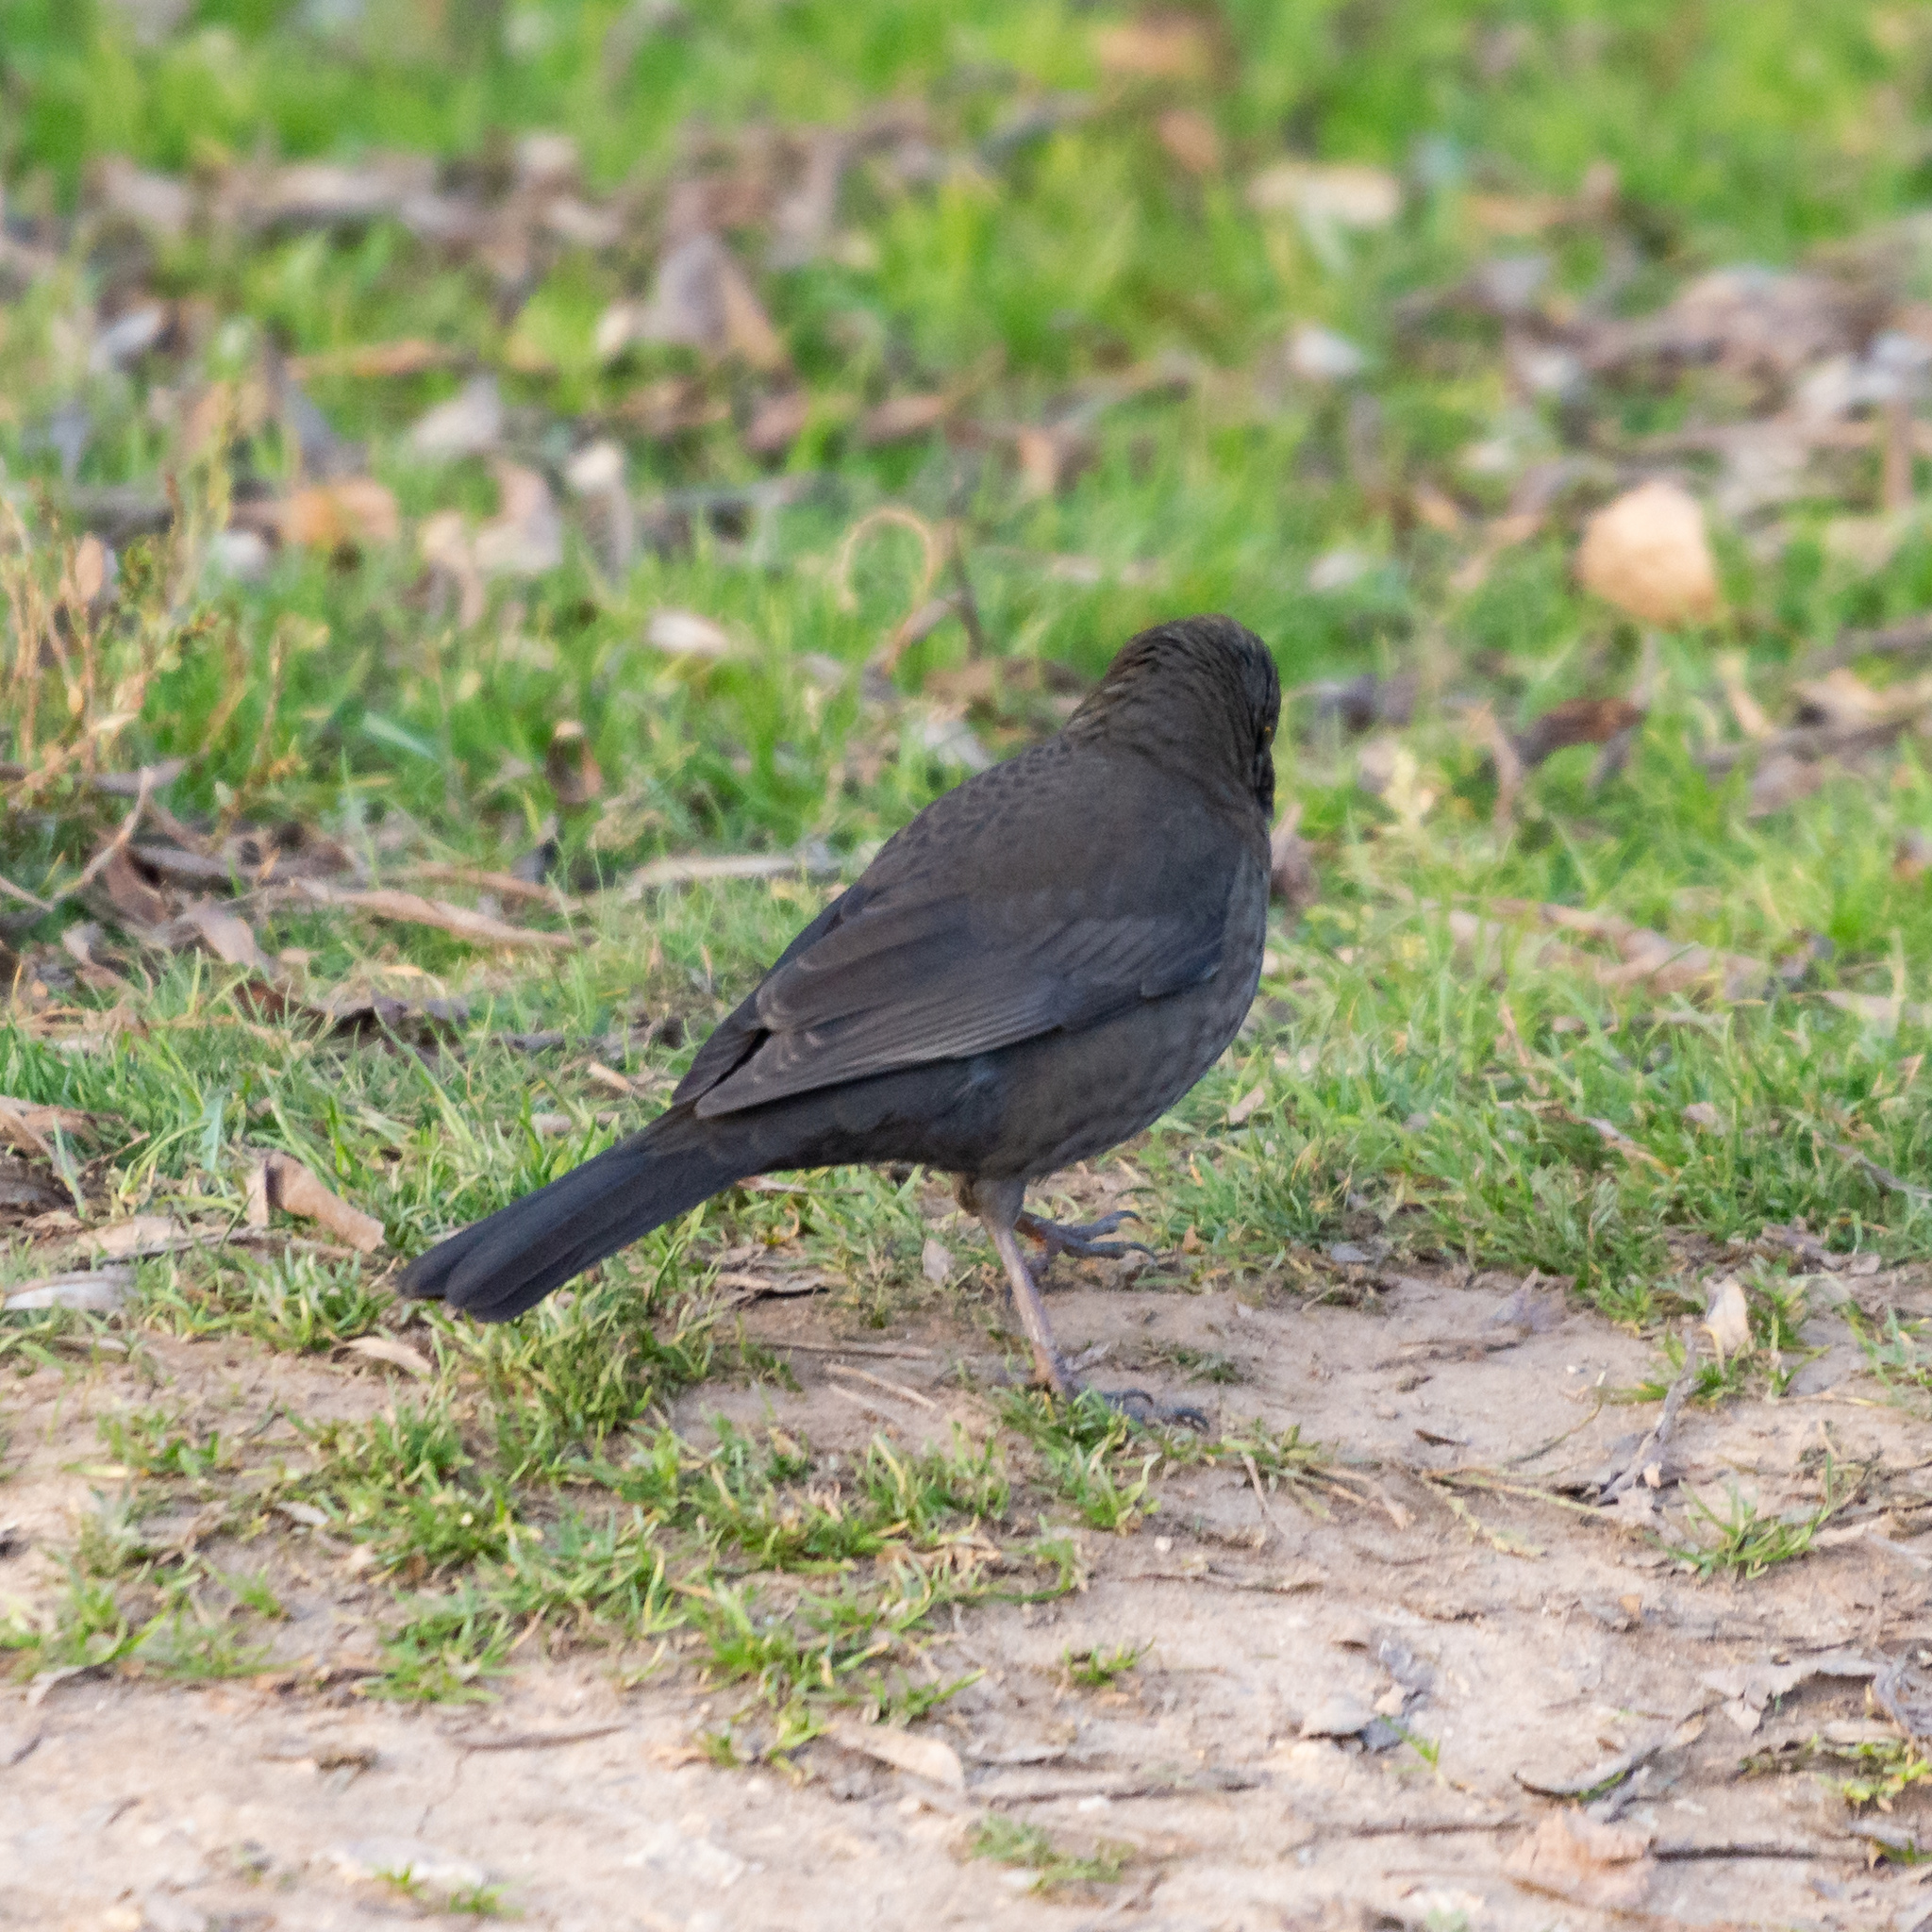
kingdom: Animalia
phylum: Chordata
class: Aves
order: Passeriformes
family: Turdidae
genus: Turdus
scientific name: Turdus merula
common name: Common blackbird
